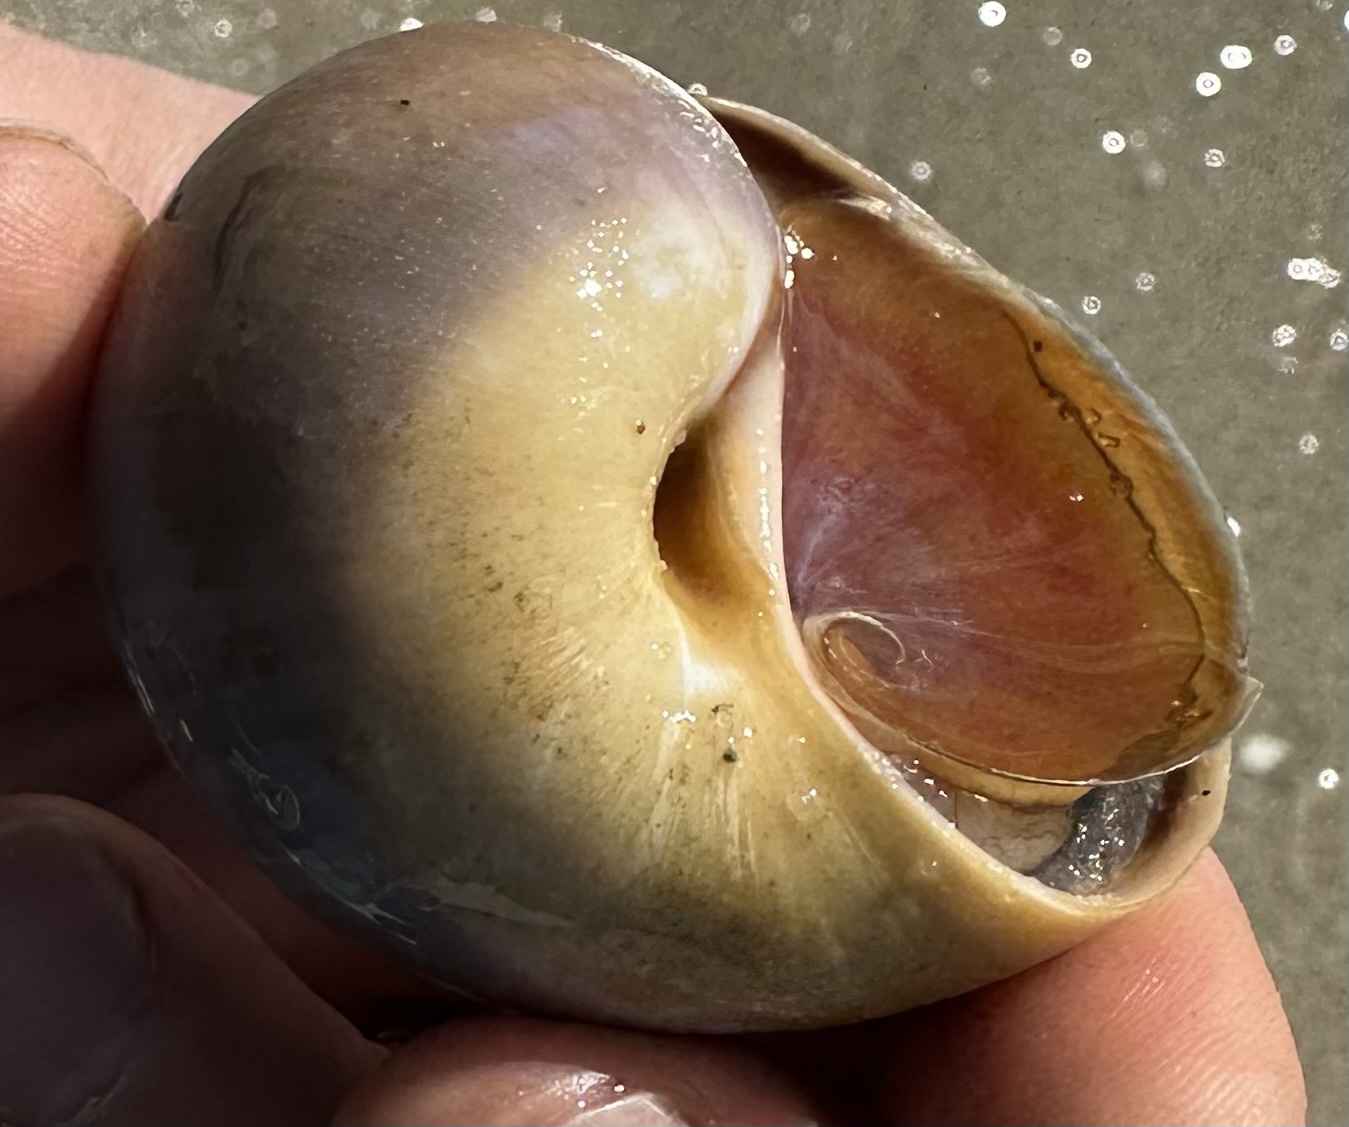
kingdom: Animalia
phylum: Mollusca
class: Gastropoda
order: Littorinimorpha
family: Naticidae
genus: Euspira
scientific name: Euspira heros
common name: Common northern moonsnail
